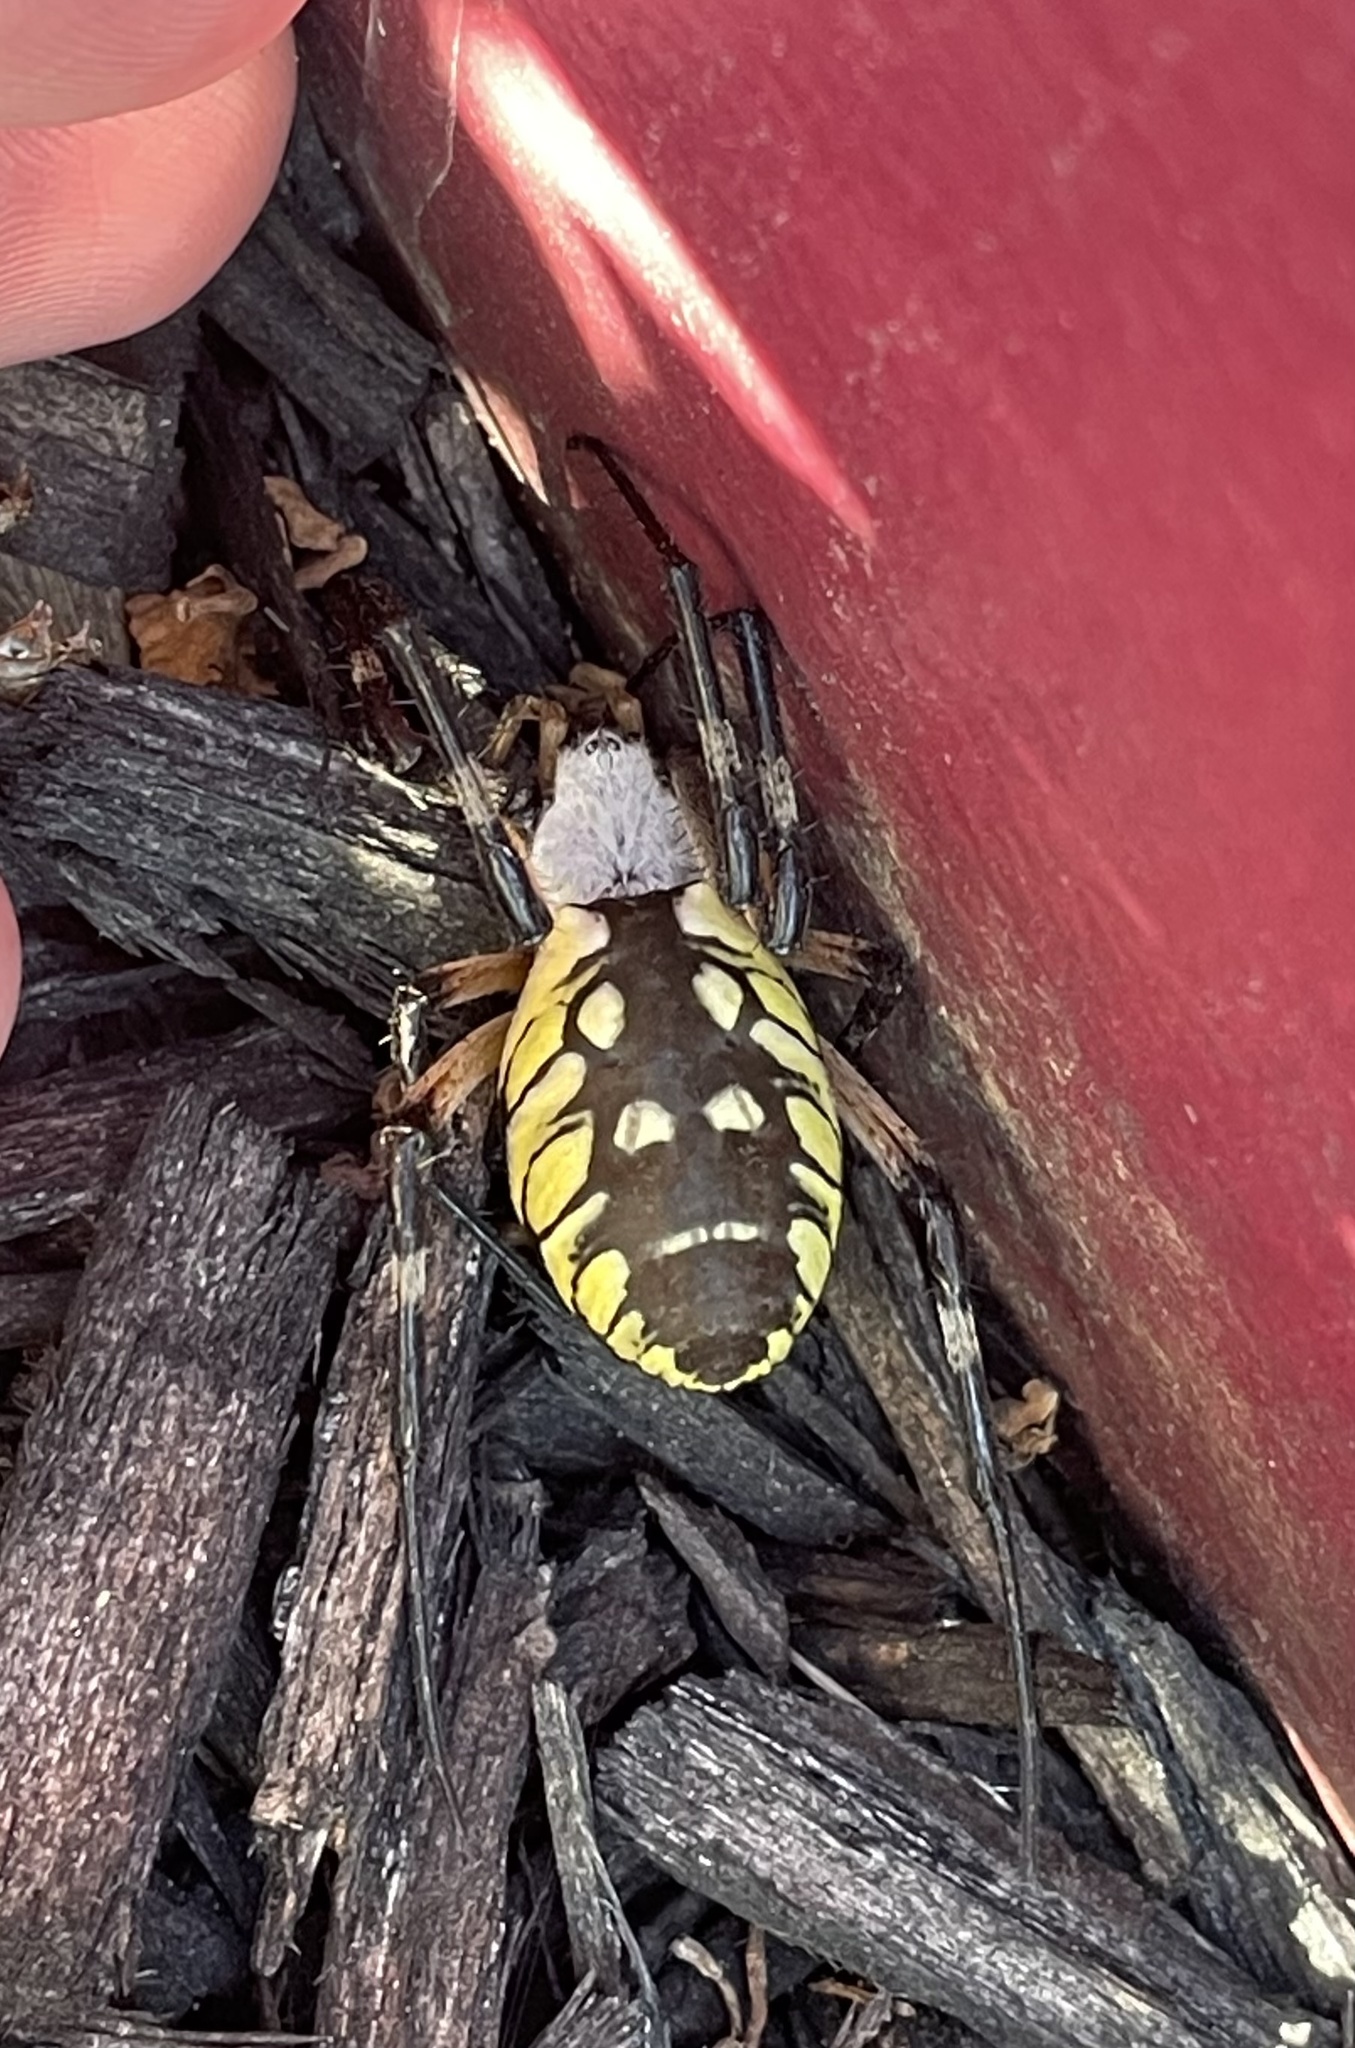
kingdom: Animalia
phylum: Arthropoda
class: Arachnida
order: Araneae
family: Araneidae
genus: Argiope
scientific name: Argiope aurantia
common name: Orb weavers
